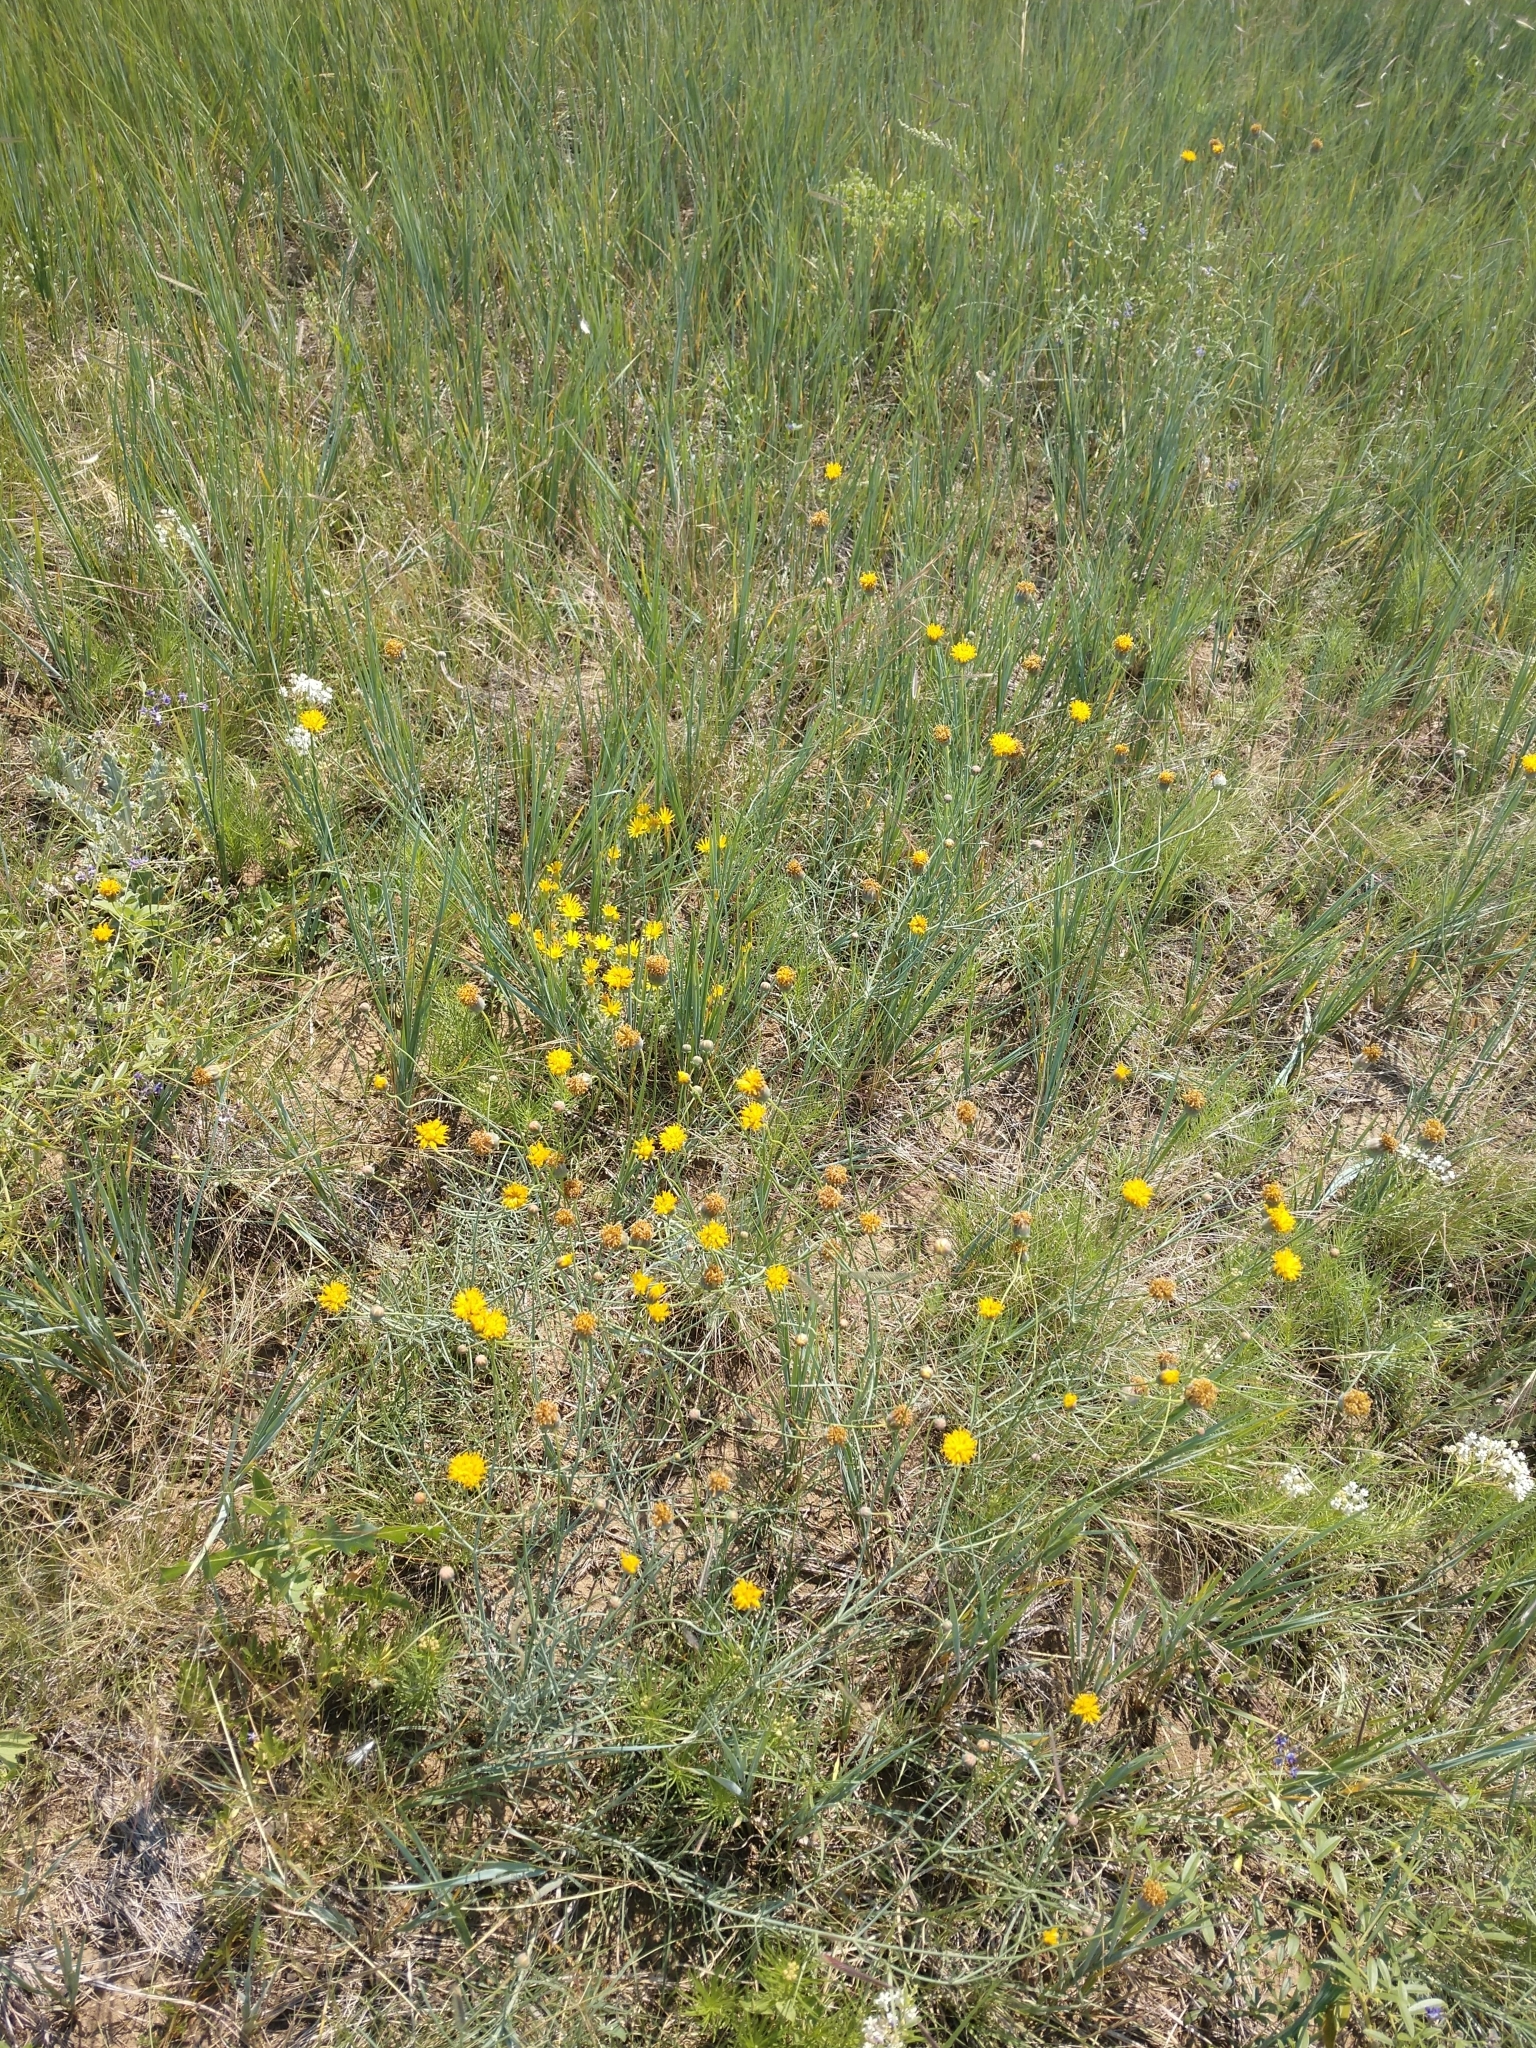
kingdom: Plantae
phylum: Tracheophyta
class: Magnoliopsida
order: Asterales
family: Asteraceae
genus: Thelesperma
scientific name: Thelesperma megapotamicum
